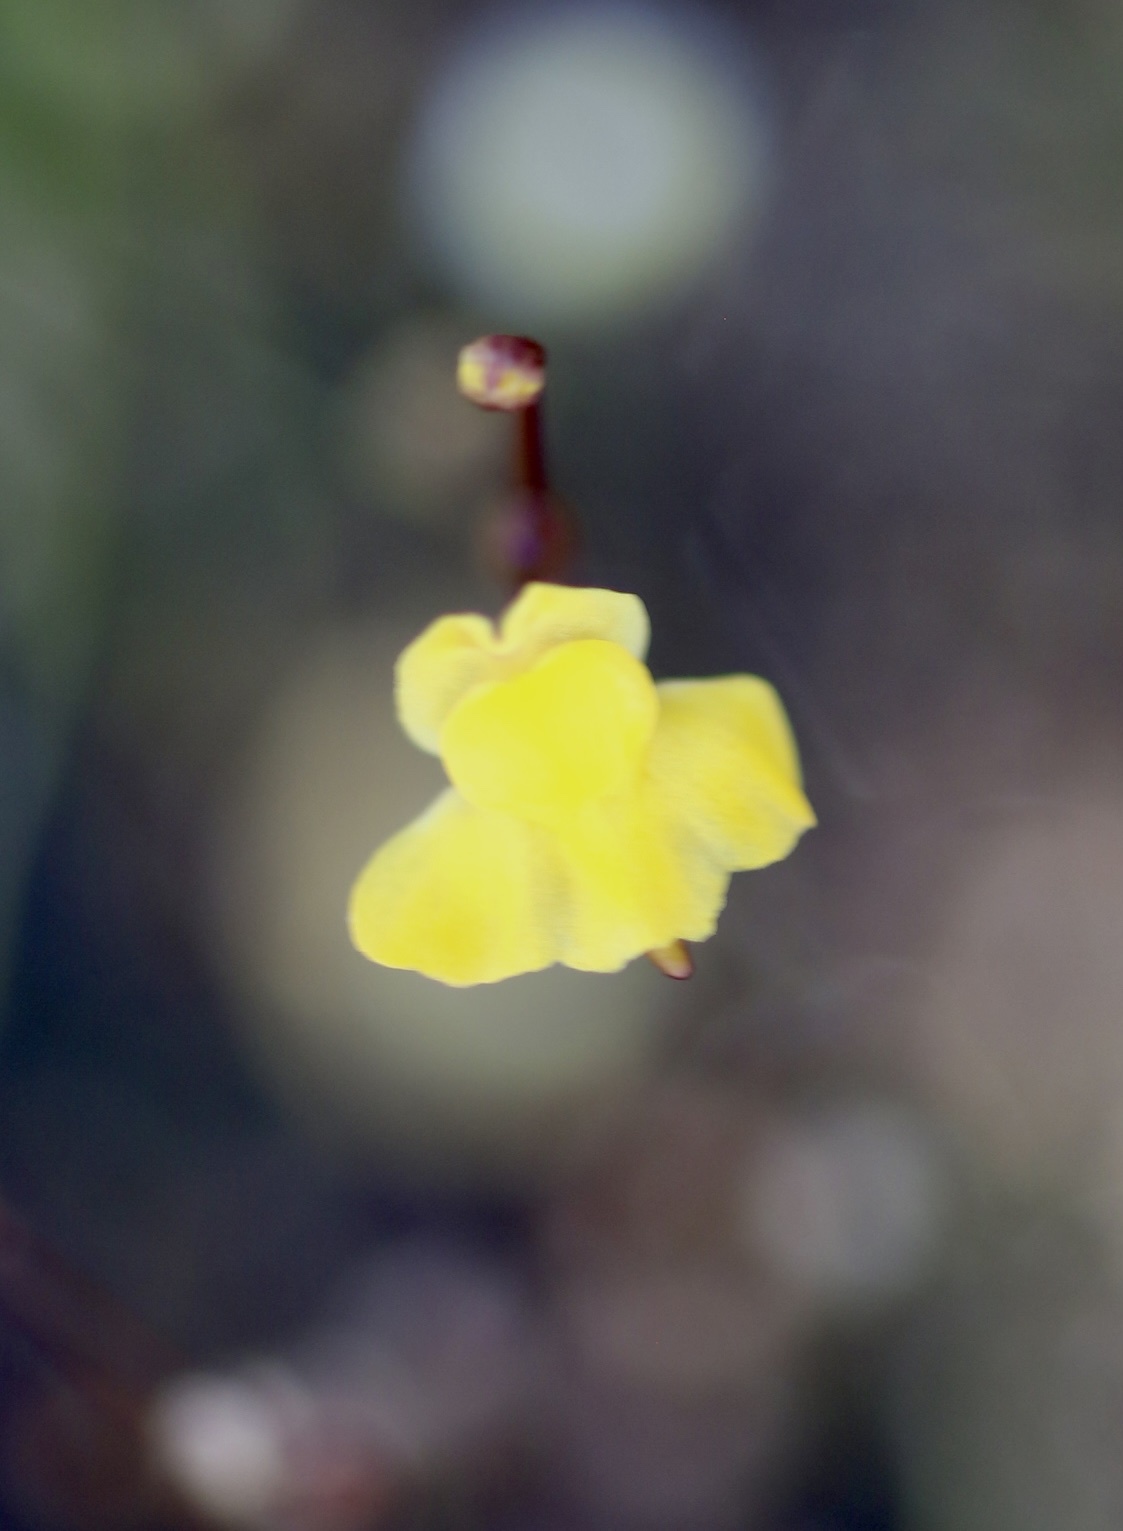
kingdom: Plantae
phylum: Tracheophyta
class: Magnoliopsida
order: Lamiales
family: Lentibulariaceae
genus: Utricularia
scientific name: Utricularia subulata
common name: Tiny bladderwort
